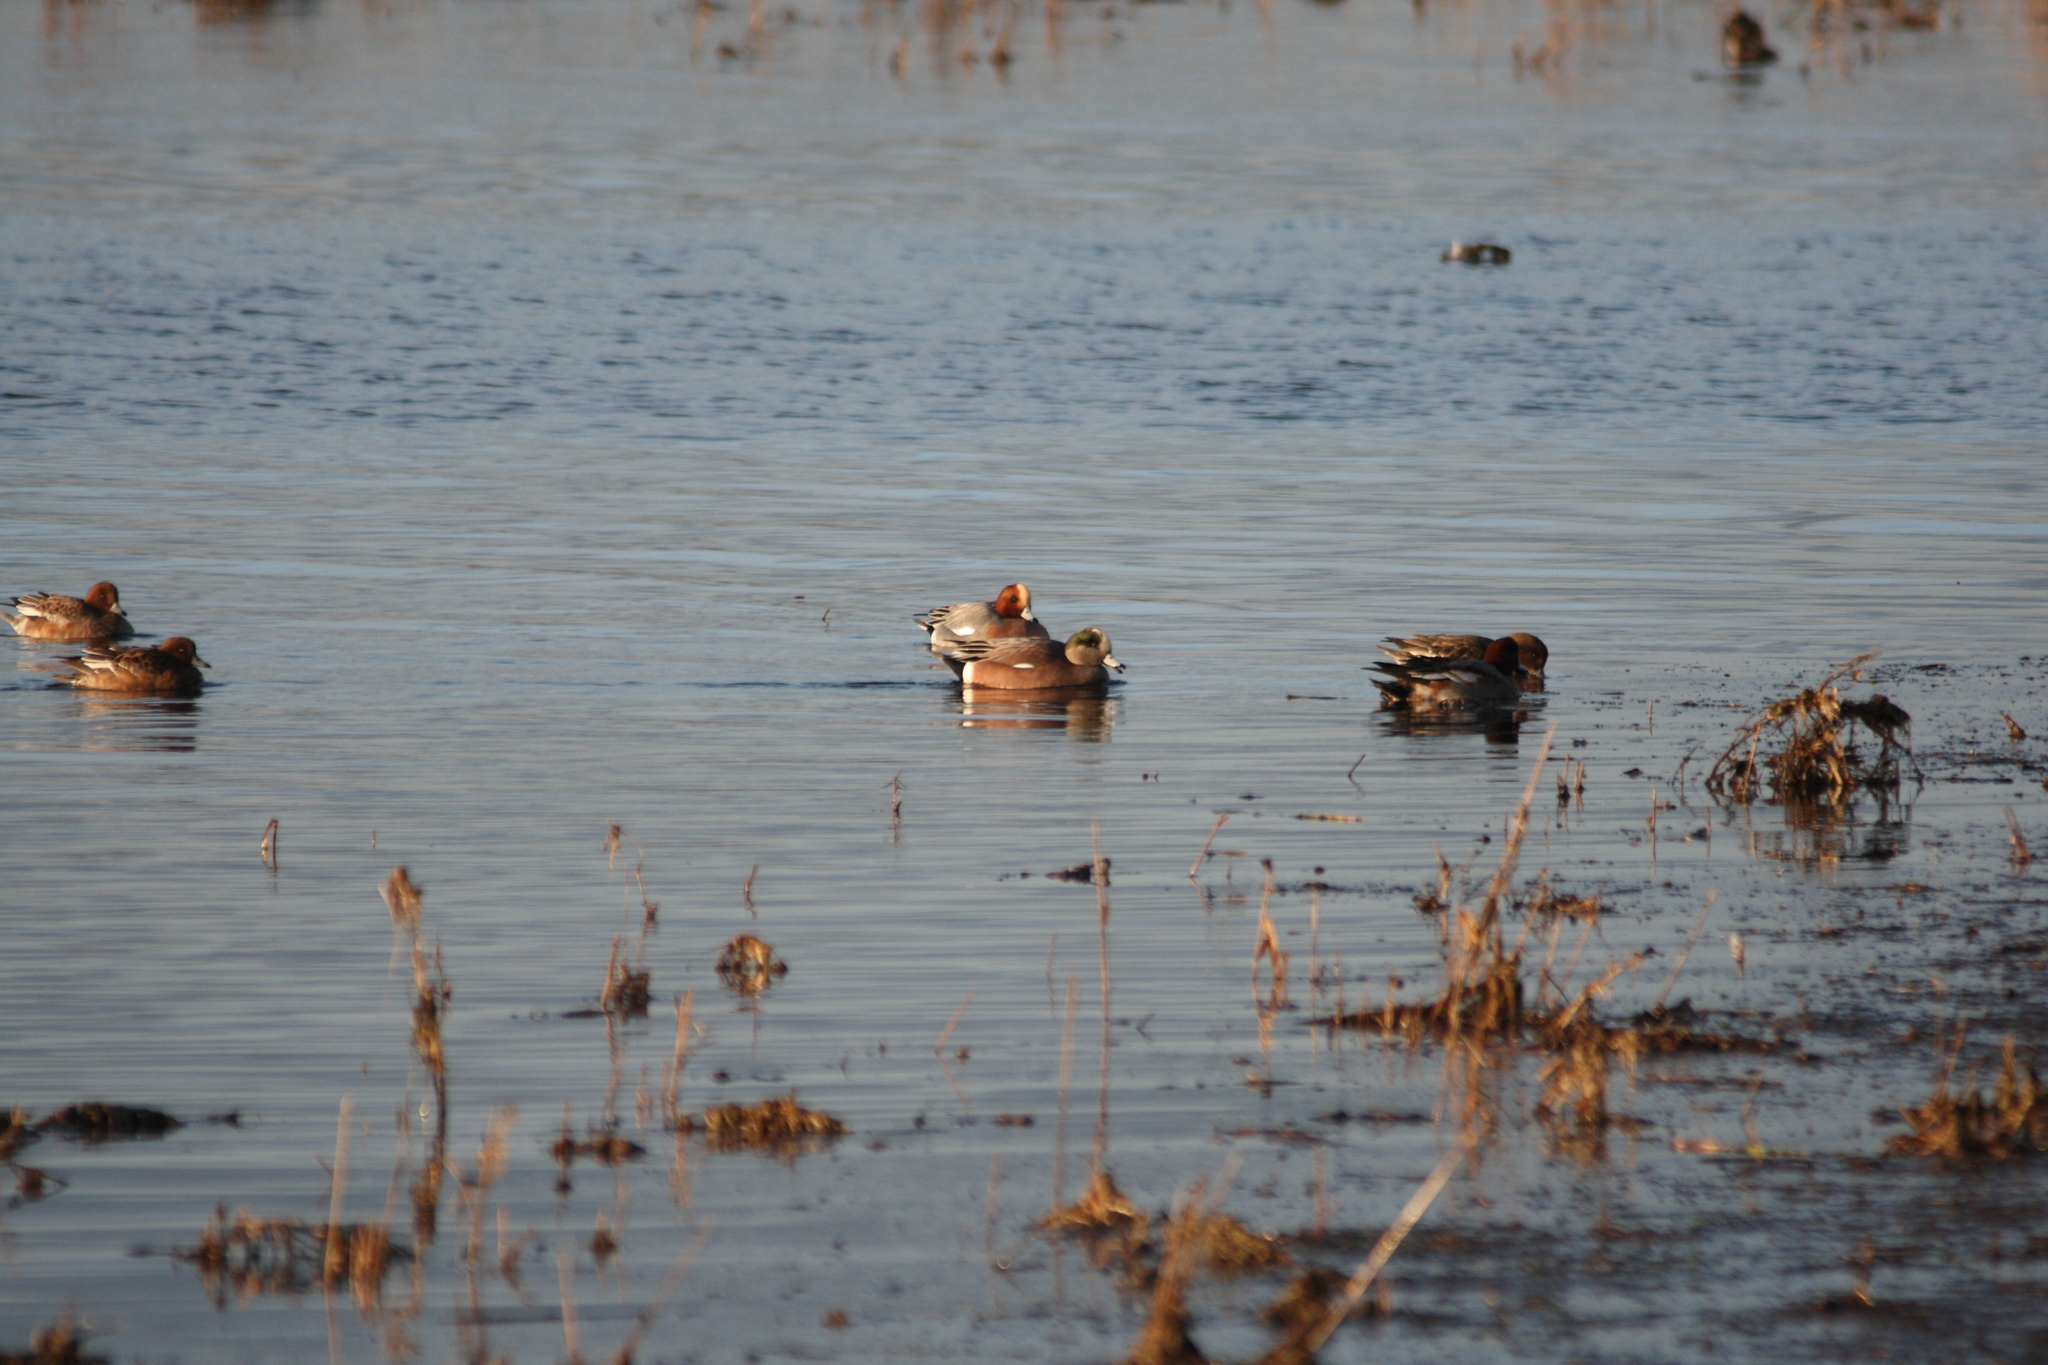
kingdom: Animalia
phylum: Chordata
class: Aves
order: Anseriformes
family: Anatidae
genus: Mareca
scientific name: Mareca americana
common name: American wigeon
